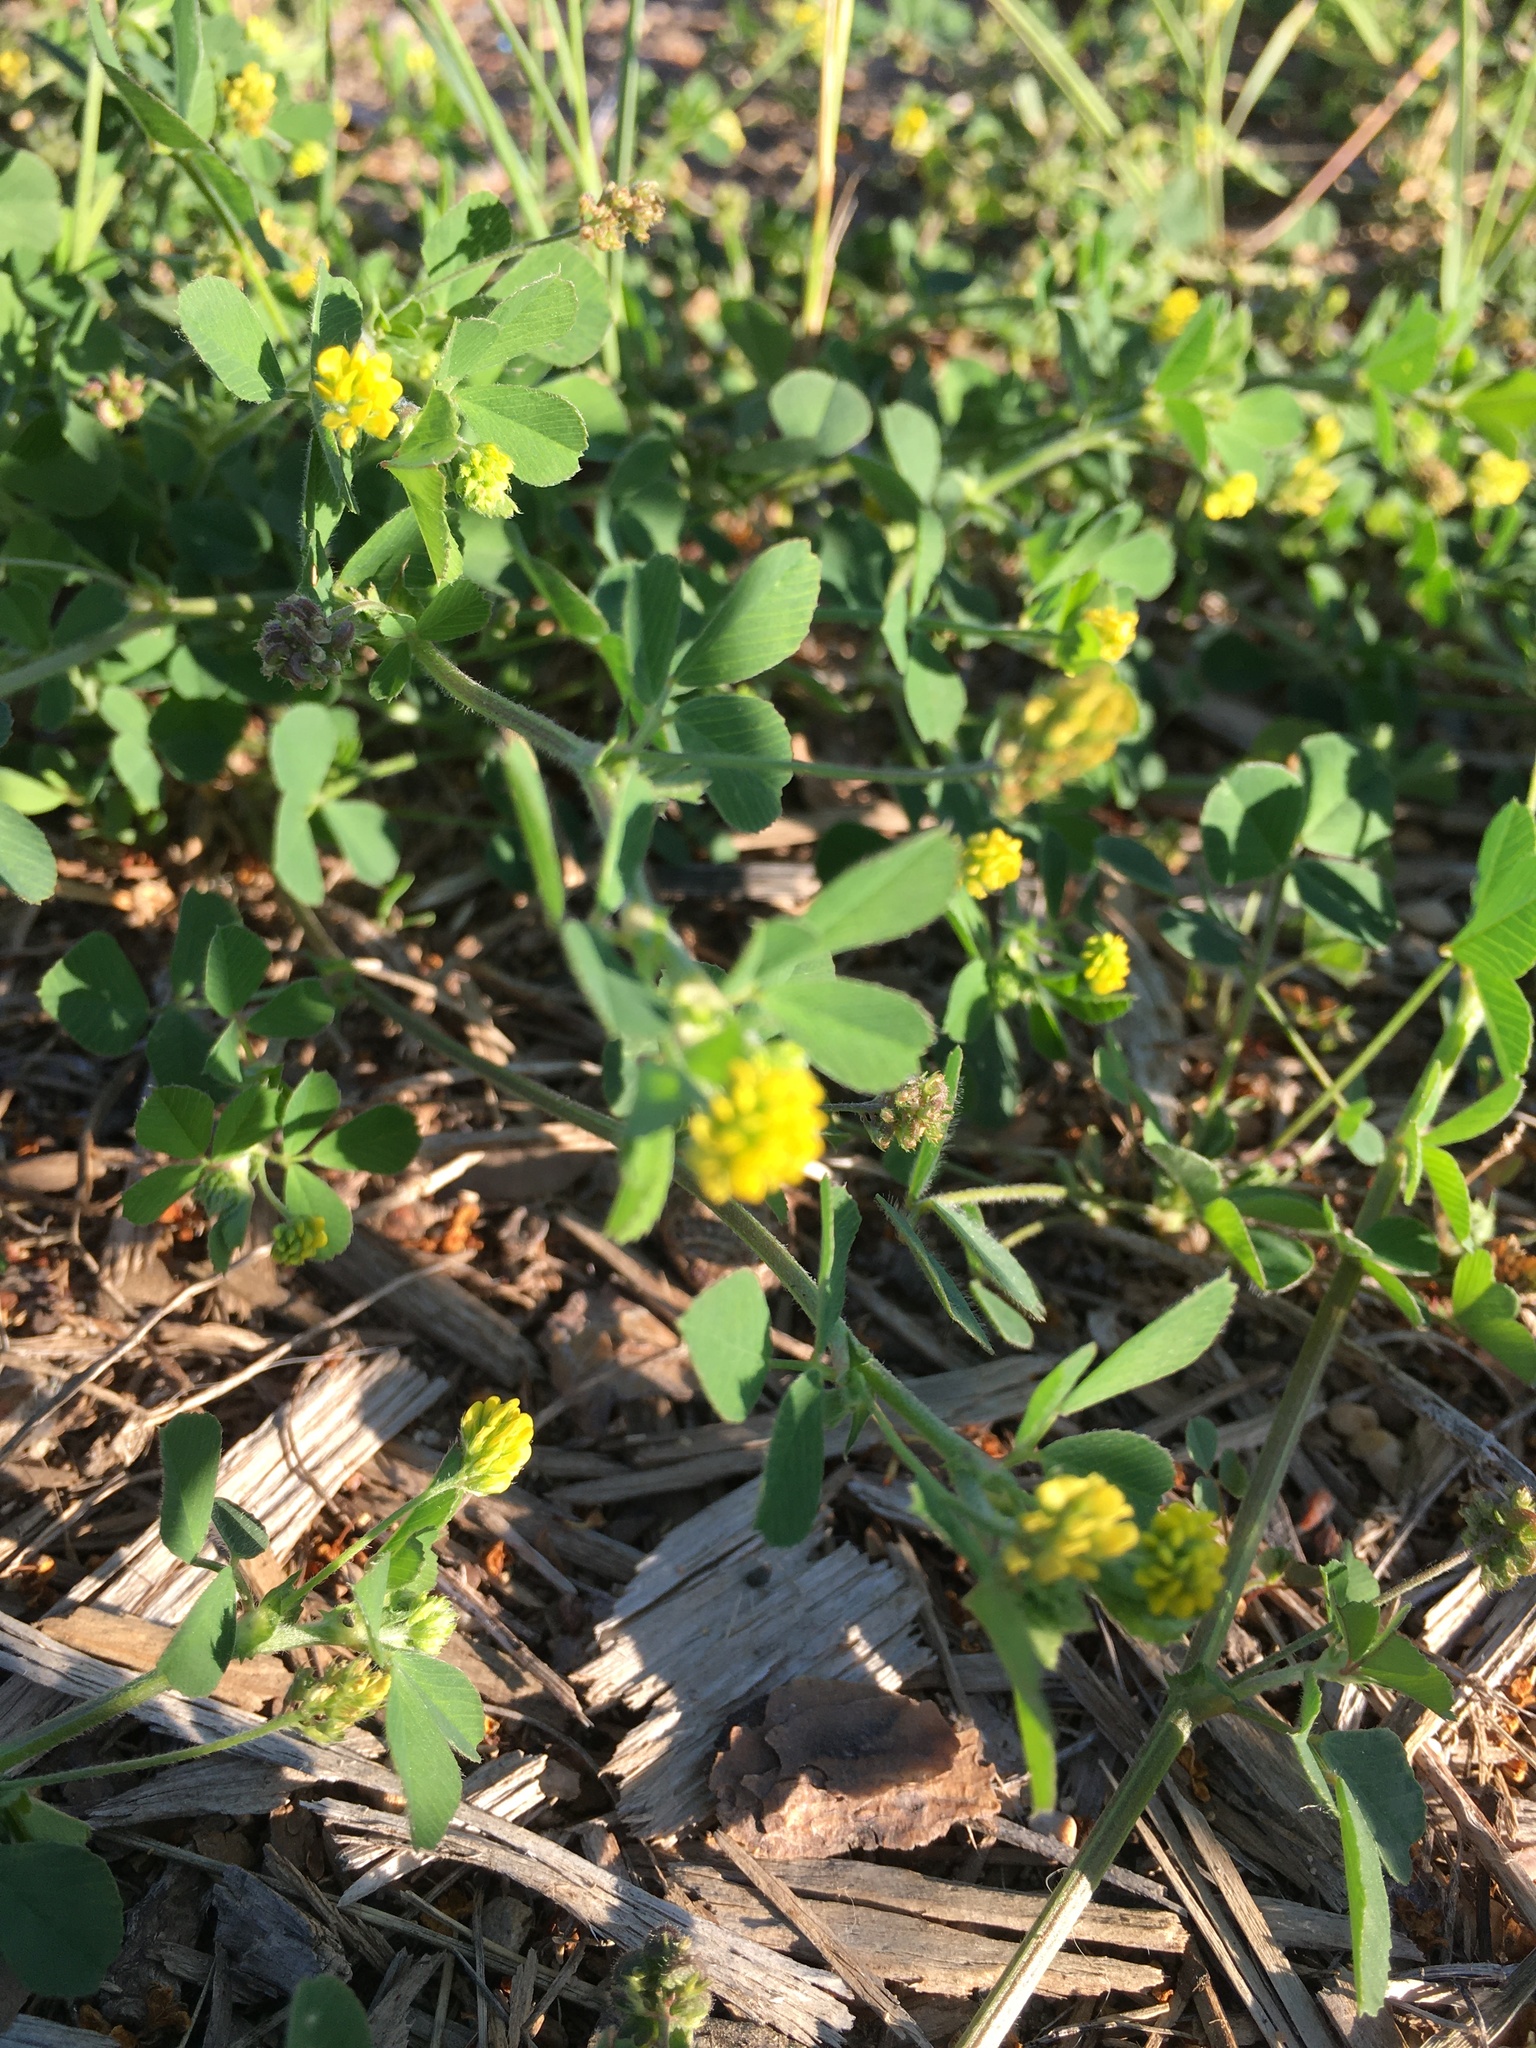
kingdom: Plantae
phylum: Tracheophyta
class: Magnoliopsida
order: Fabales
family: Fabaceae
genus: Medicago
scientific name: Medicago lupulina
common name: Black medick
